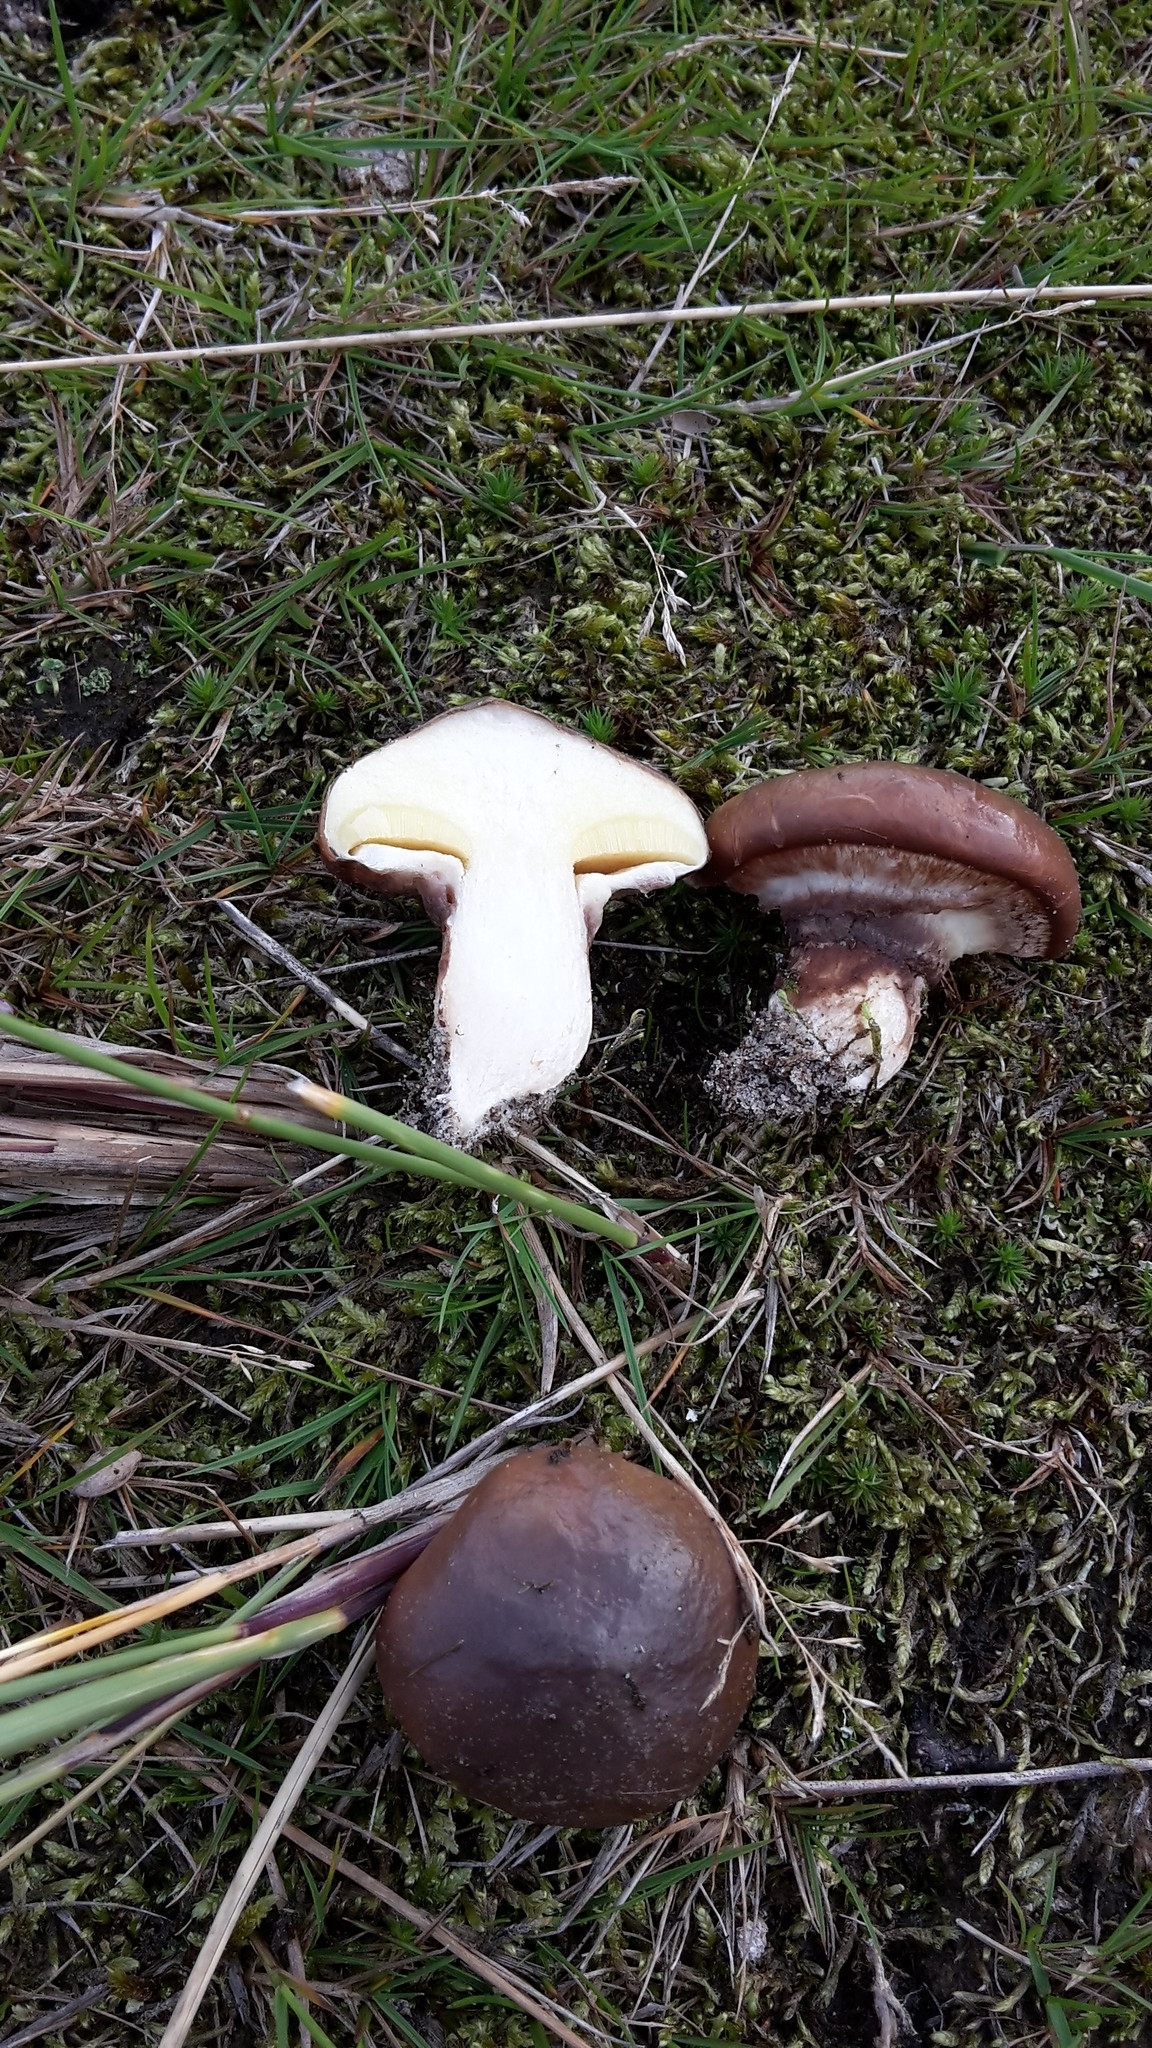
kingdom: Fungi
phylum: Basidiomycota
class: Agaricomycetes
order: Boletales
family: Suillaceae
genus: Suillus
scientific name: Suillus luteus
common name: Slippery jack
